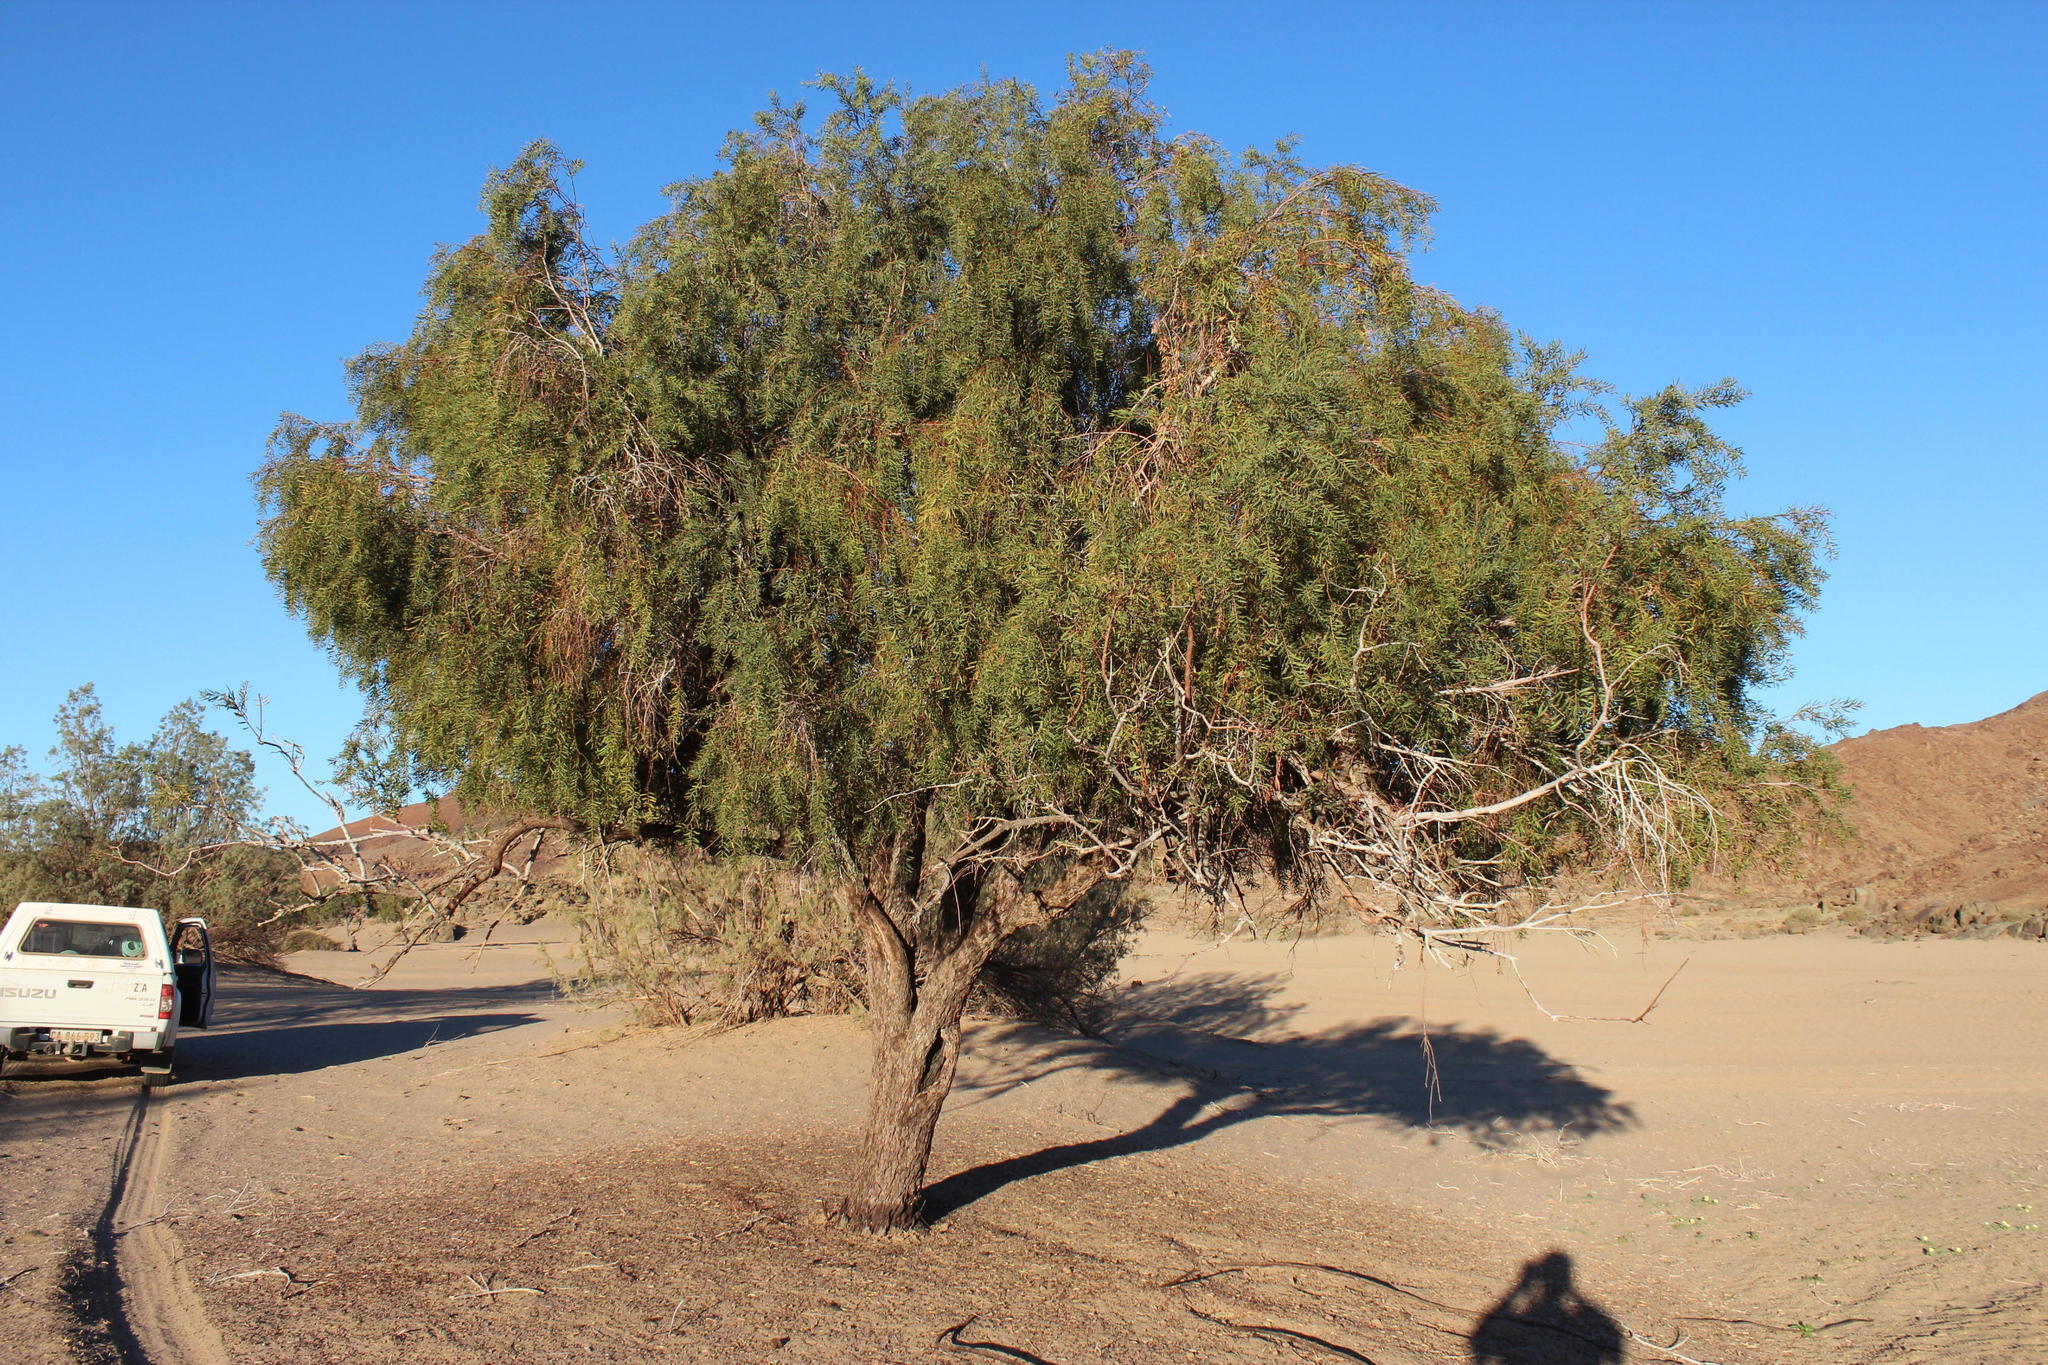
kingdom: Plantae
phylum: Tracheophyta
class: Magnoliopsida
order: Ericales
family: Ebenaceae
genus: Euclea
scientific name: Euclea pseudebenus
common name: Black ebony
